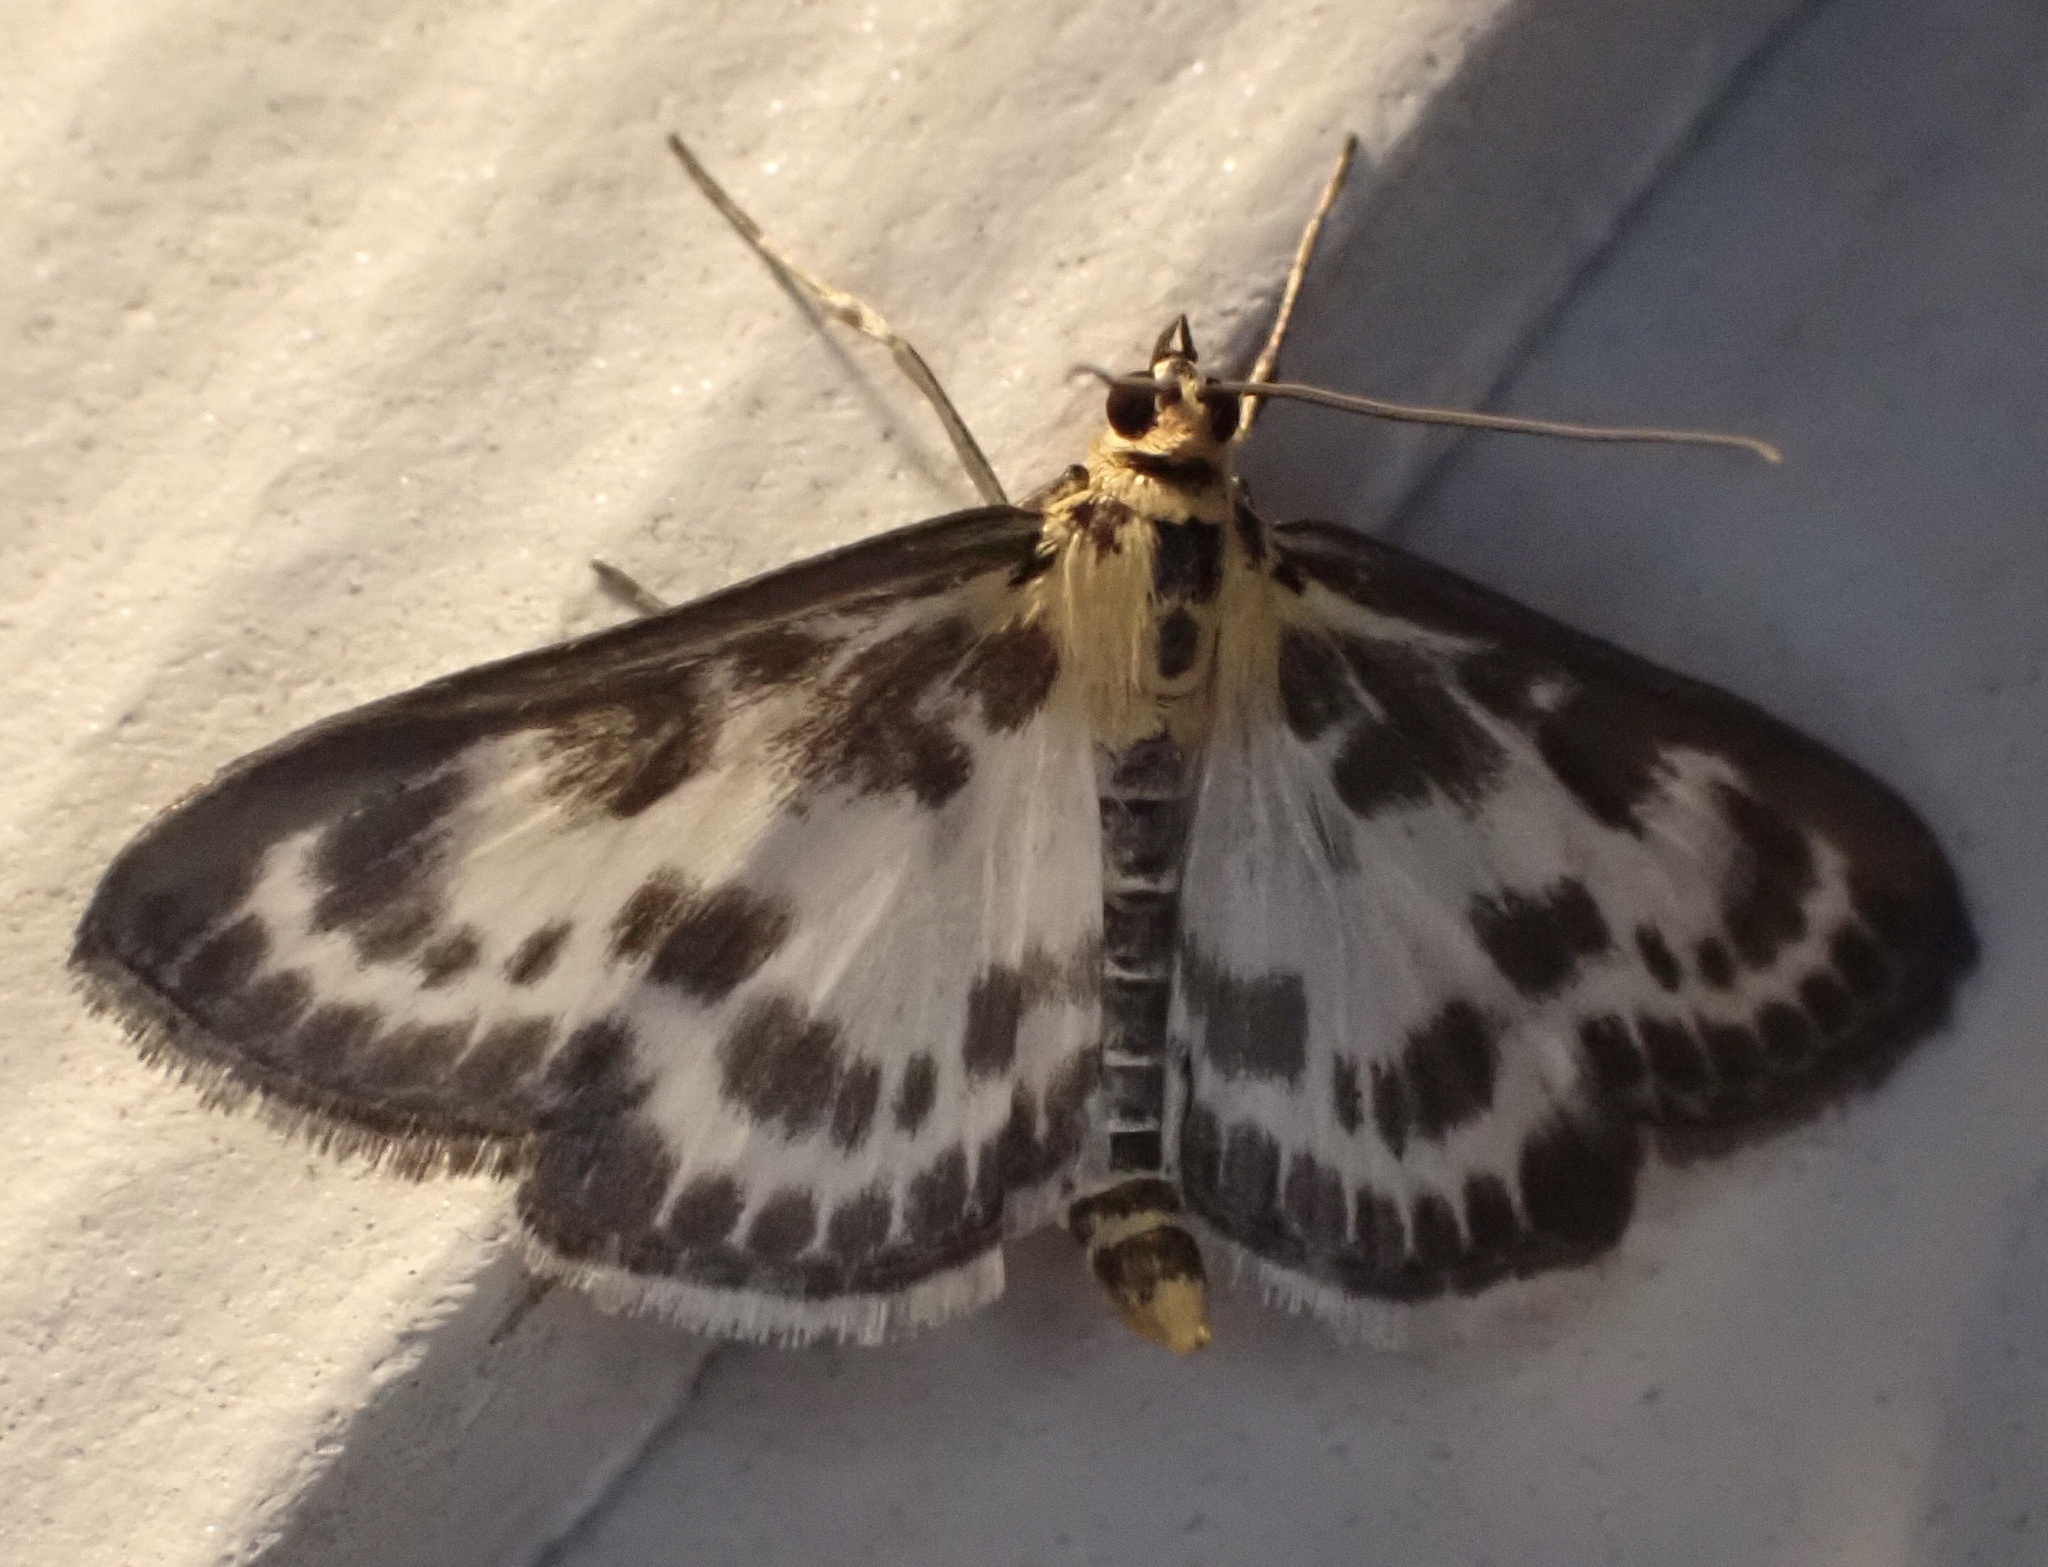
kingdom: Animalia
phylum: Arthropoda
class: Insecta
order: Lepidoptera
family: Crambidae
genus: Anania
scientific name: Anania hortulata
